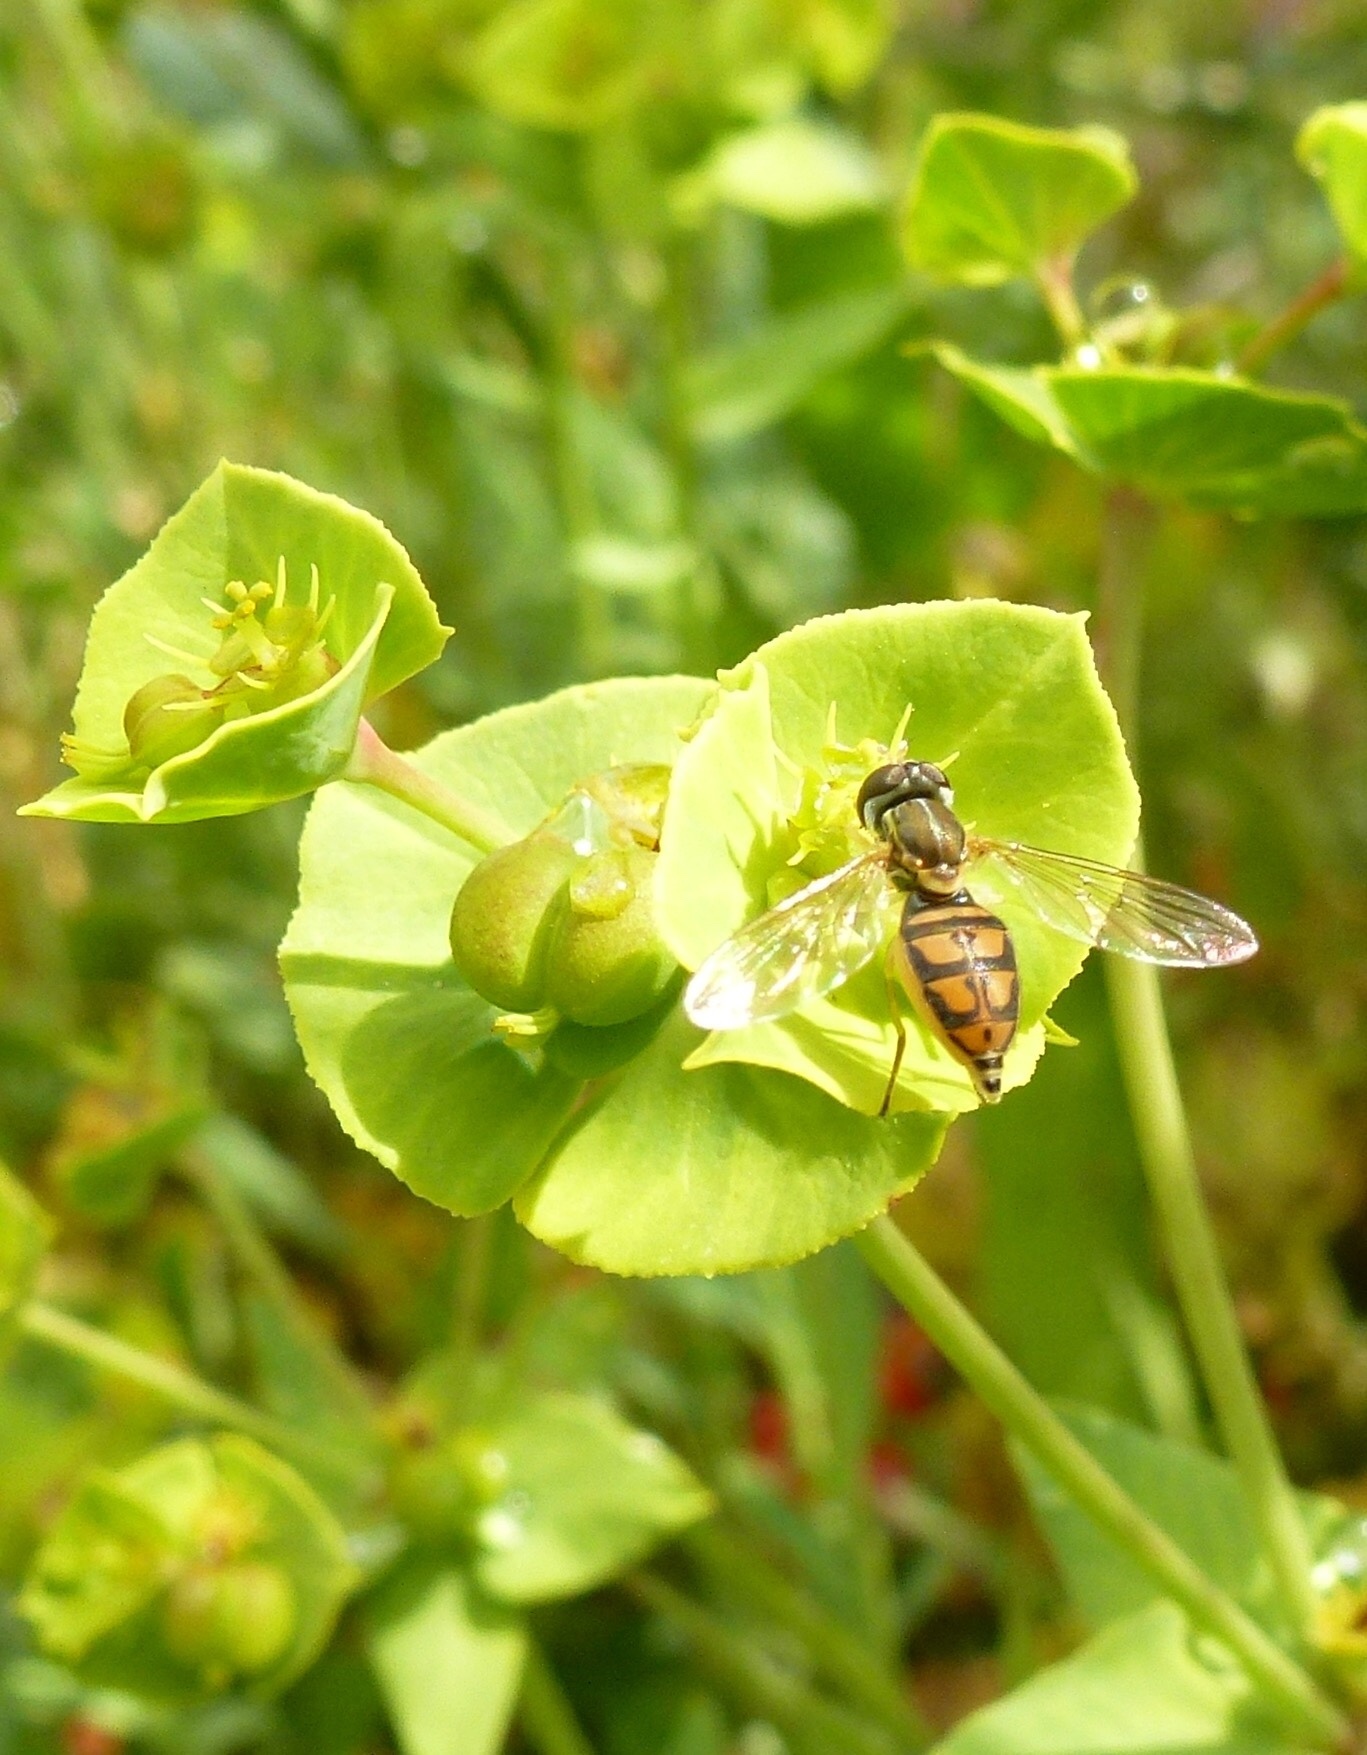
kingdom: Animalia
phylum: Arthropoda
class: Insecta
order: Diptera
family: Syrphidae
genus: Toxomerus
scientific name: Toxomerus marginatus
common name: Syrphid fly
